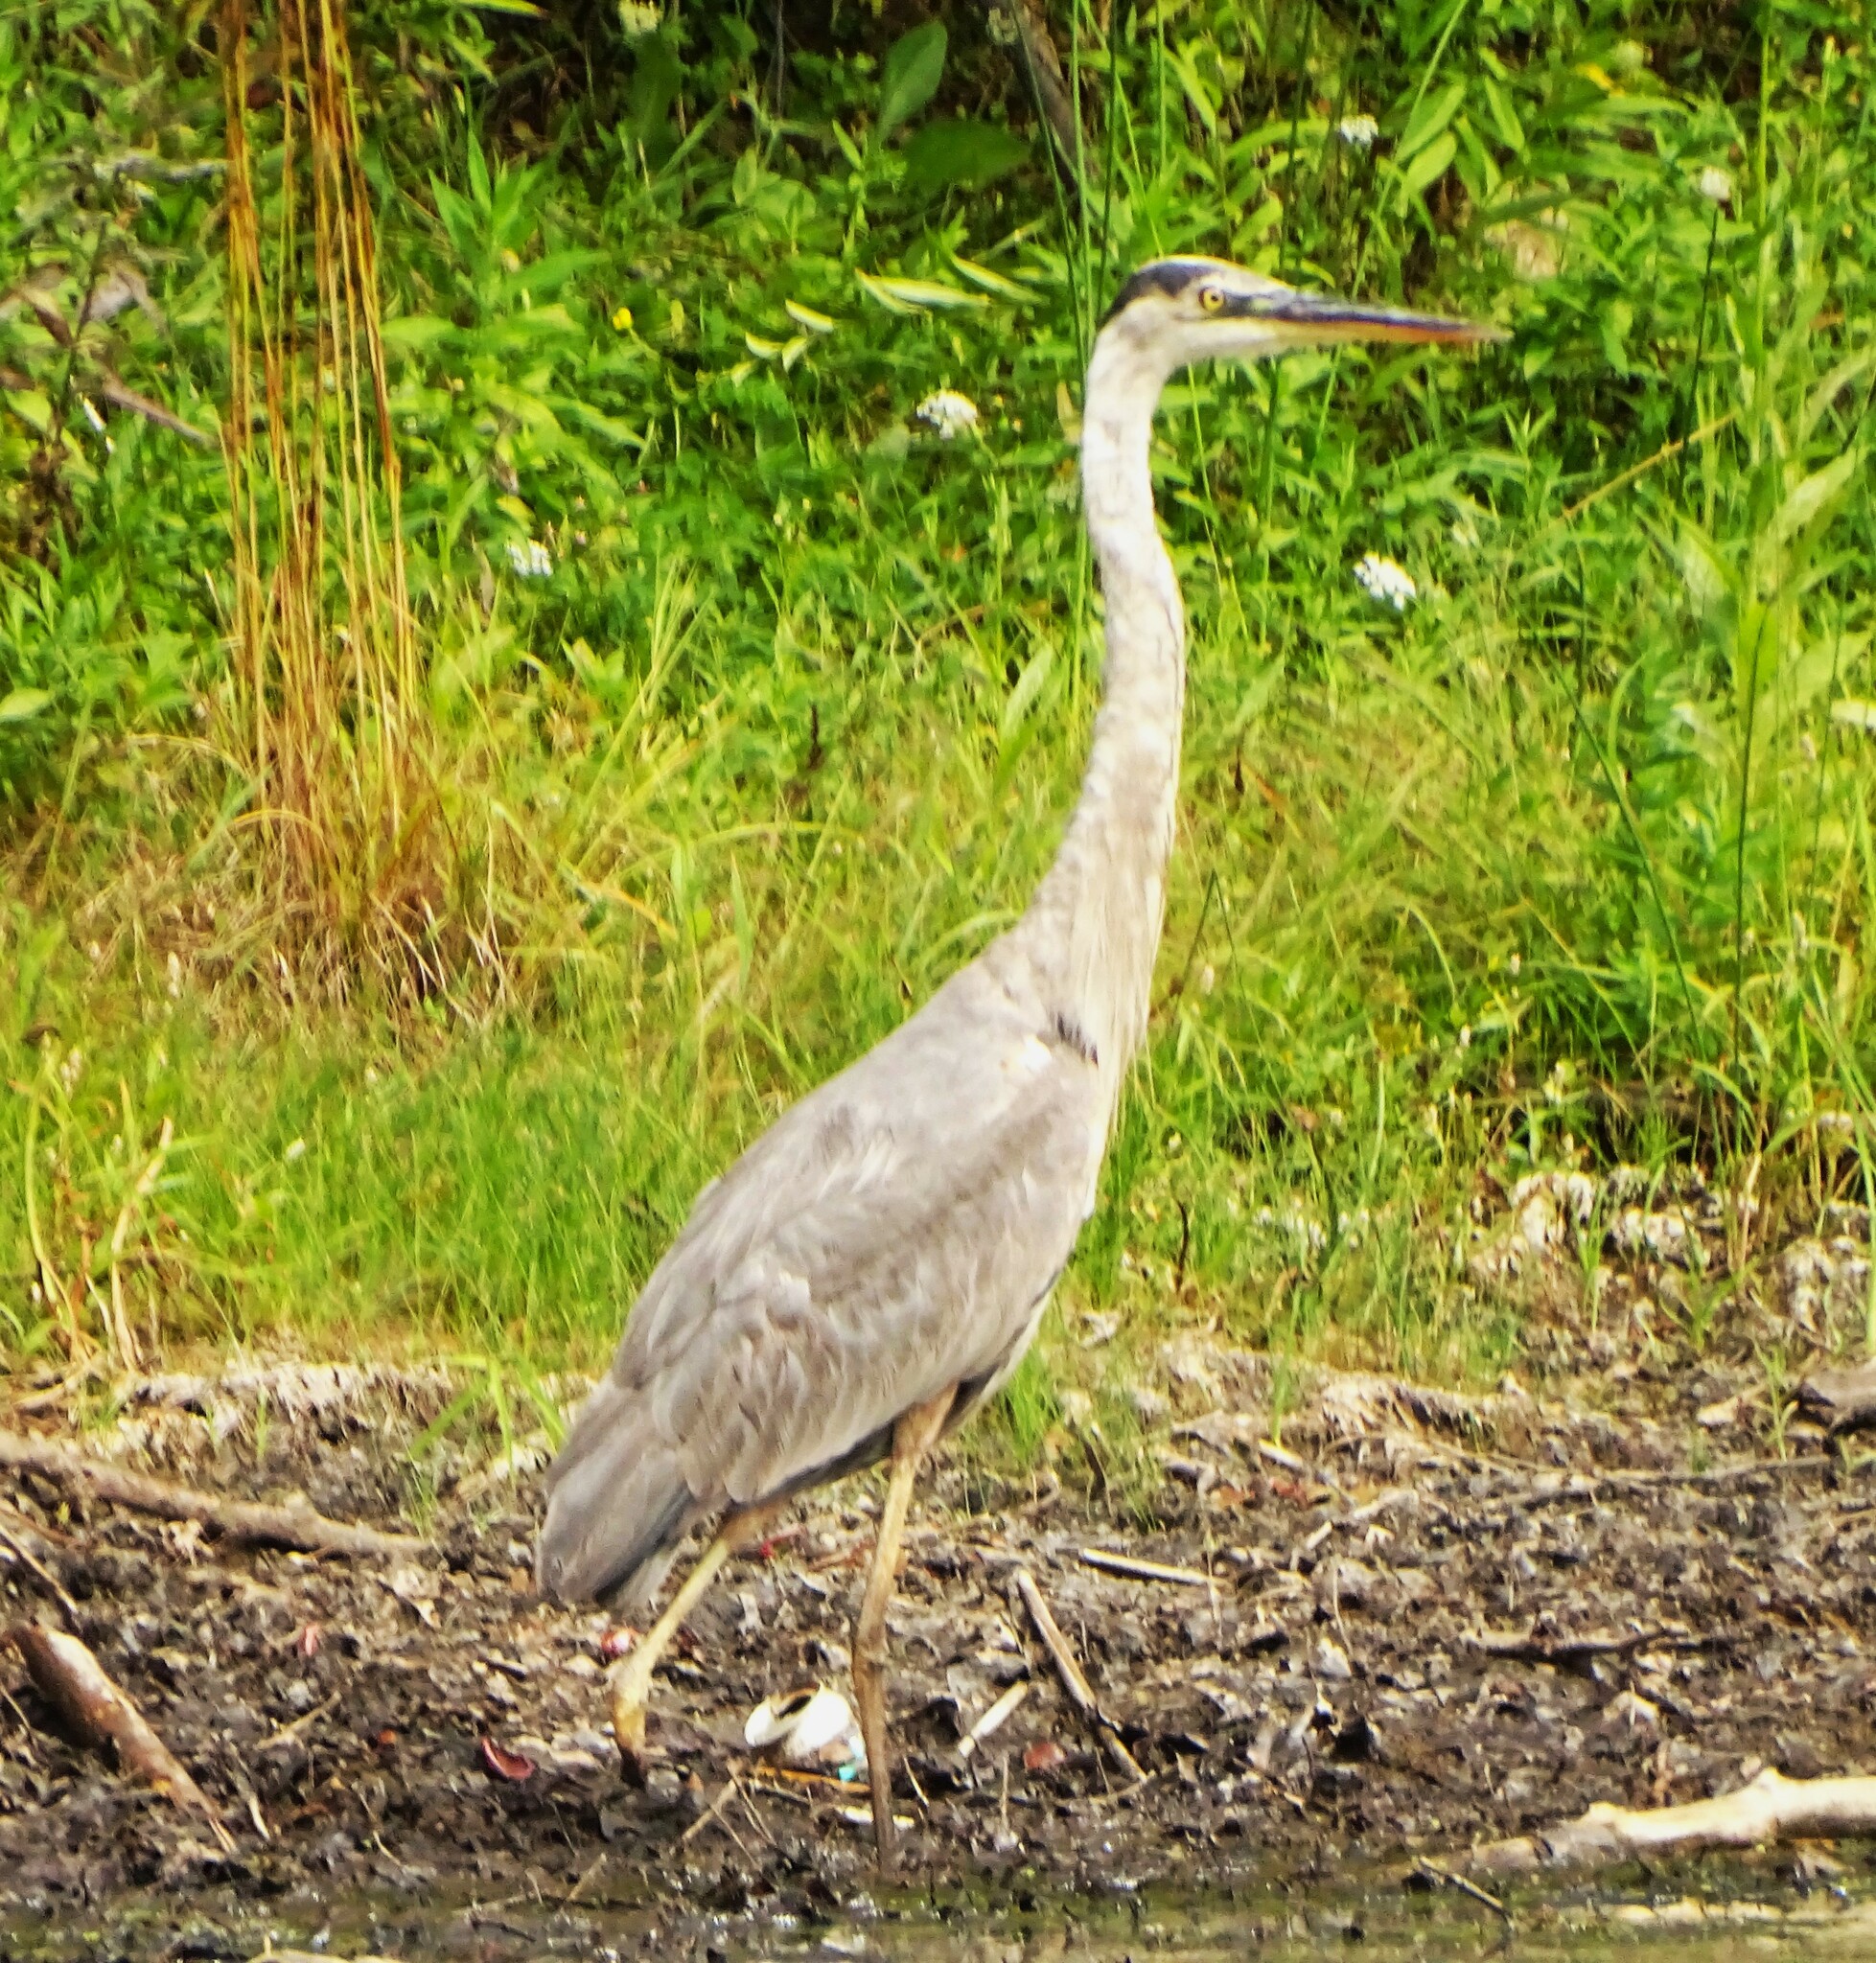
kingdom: Animalia
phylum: Chordata
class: Aves
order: Pelecaniformes
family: Ardeidae
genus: Ardea
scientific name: Ardea herodias
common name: Great blue heron
